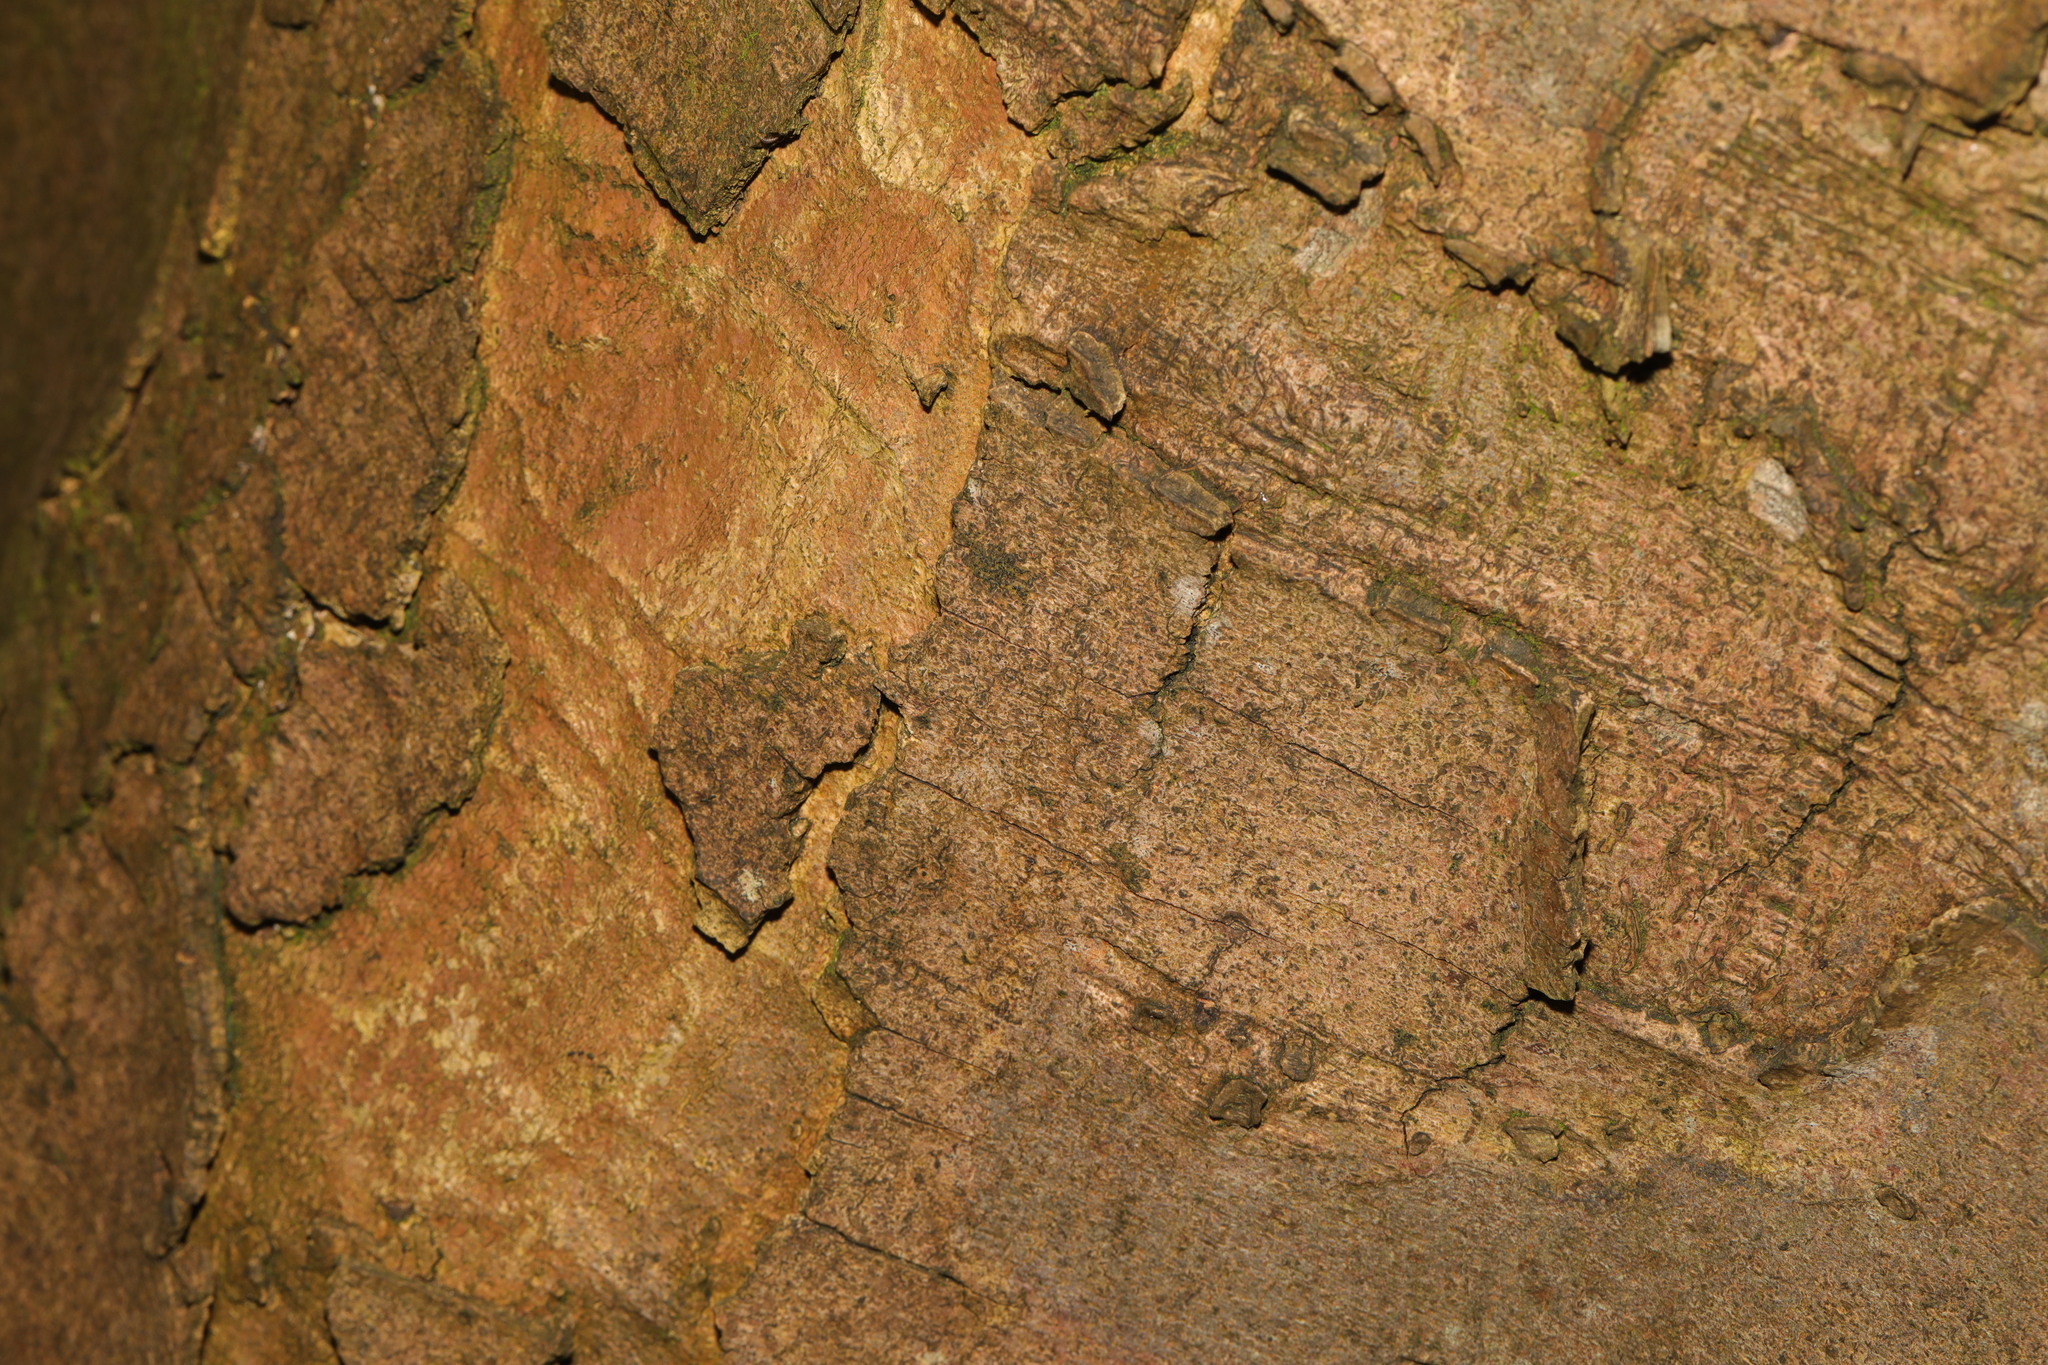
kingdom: Plantae
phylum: Tracheophyta
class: Magnoliopsida
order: Sapindales
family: Sapindaceae
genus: Acer
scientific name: Acer pseudoplatanus
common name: Sycamore
